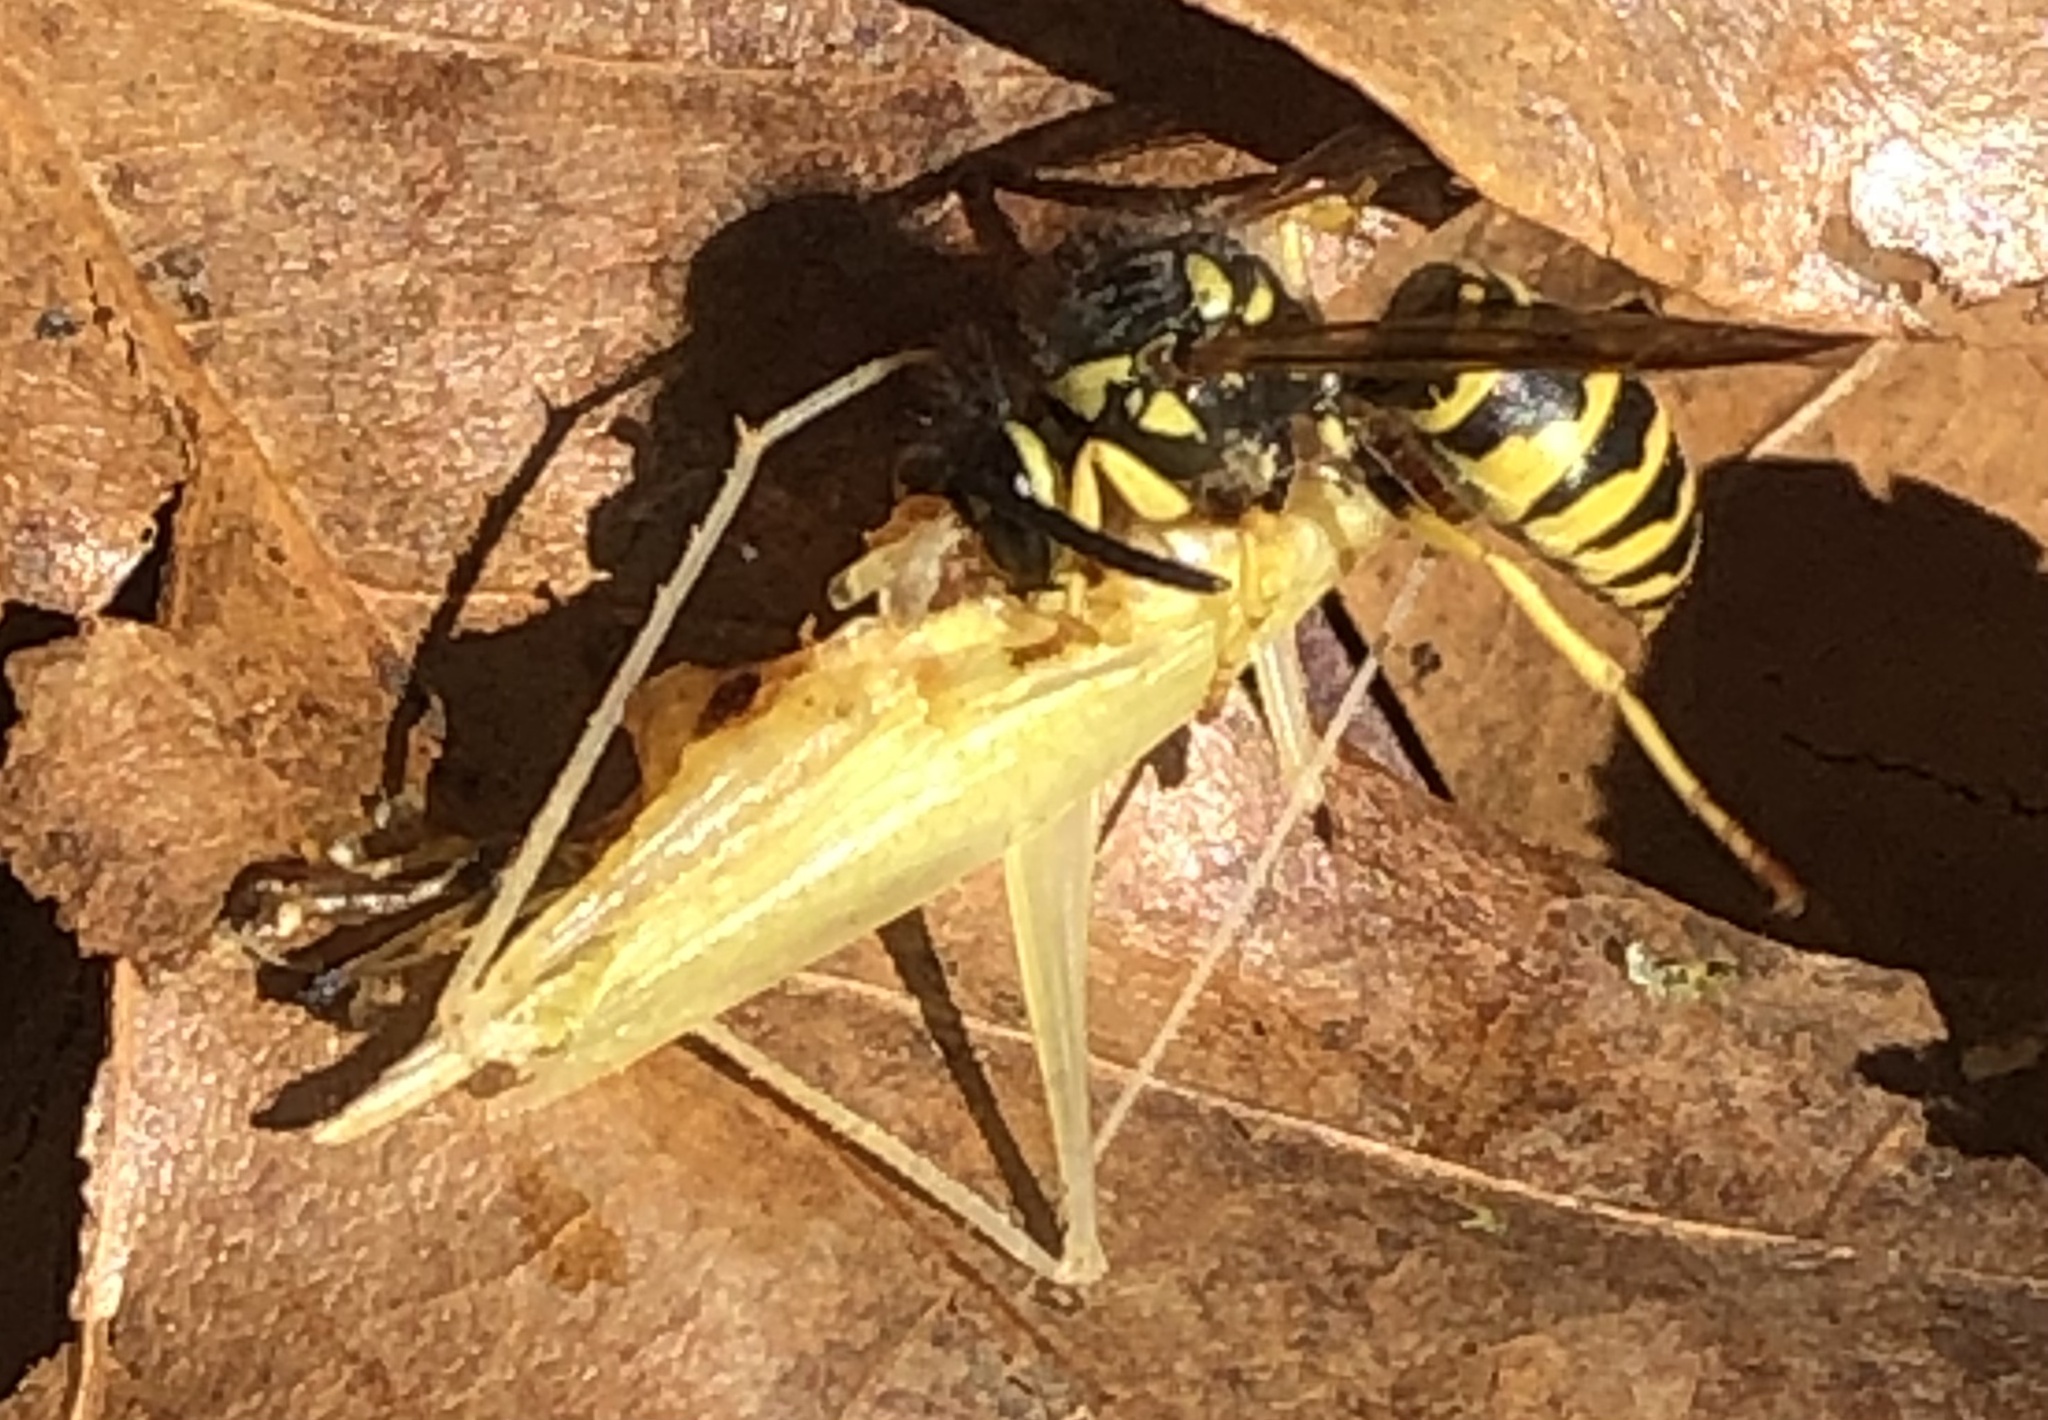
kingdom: Animalia
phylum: Arthropoda
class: Insecta
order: Hymenoptera
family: Vespidae
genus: Vespula
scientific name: Vespula maculifrons
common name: Eastern yellowjacket
